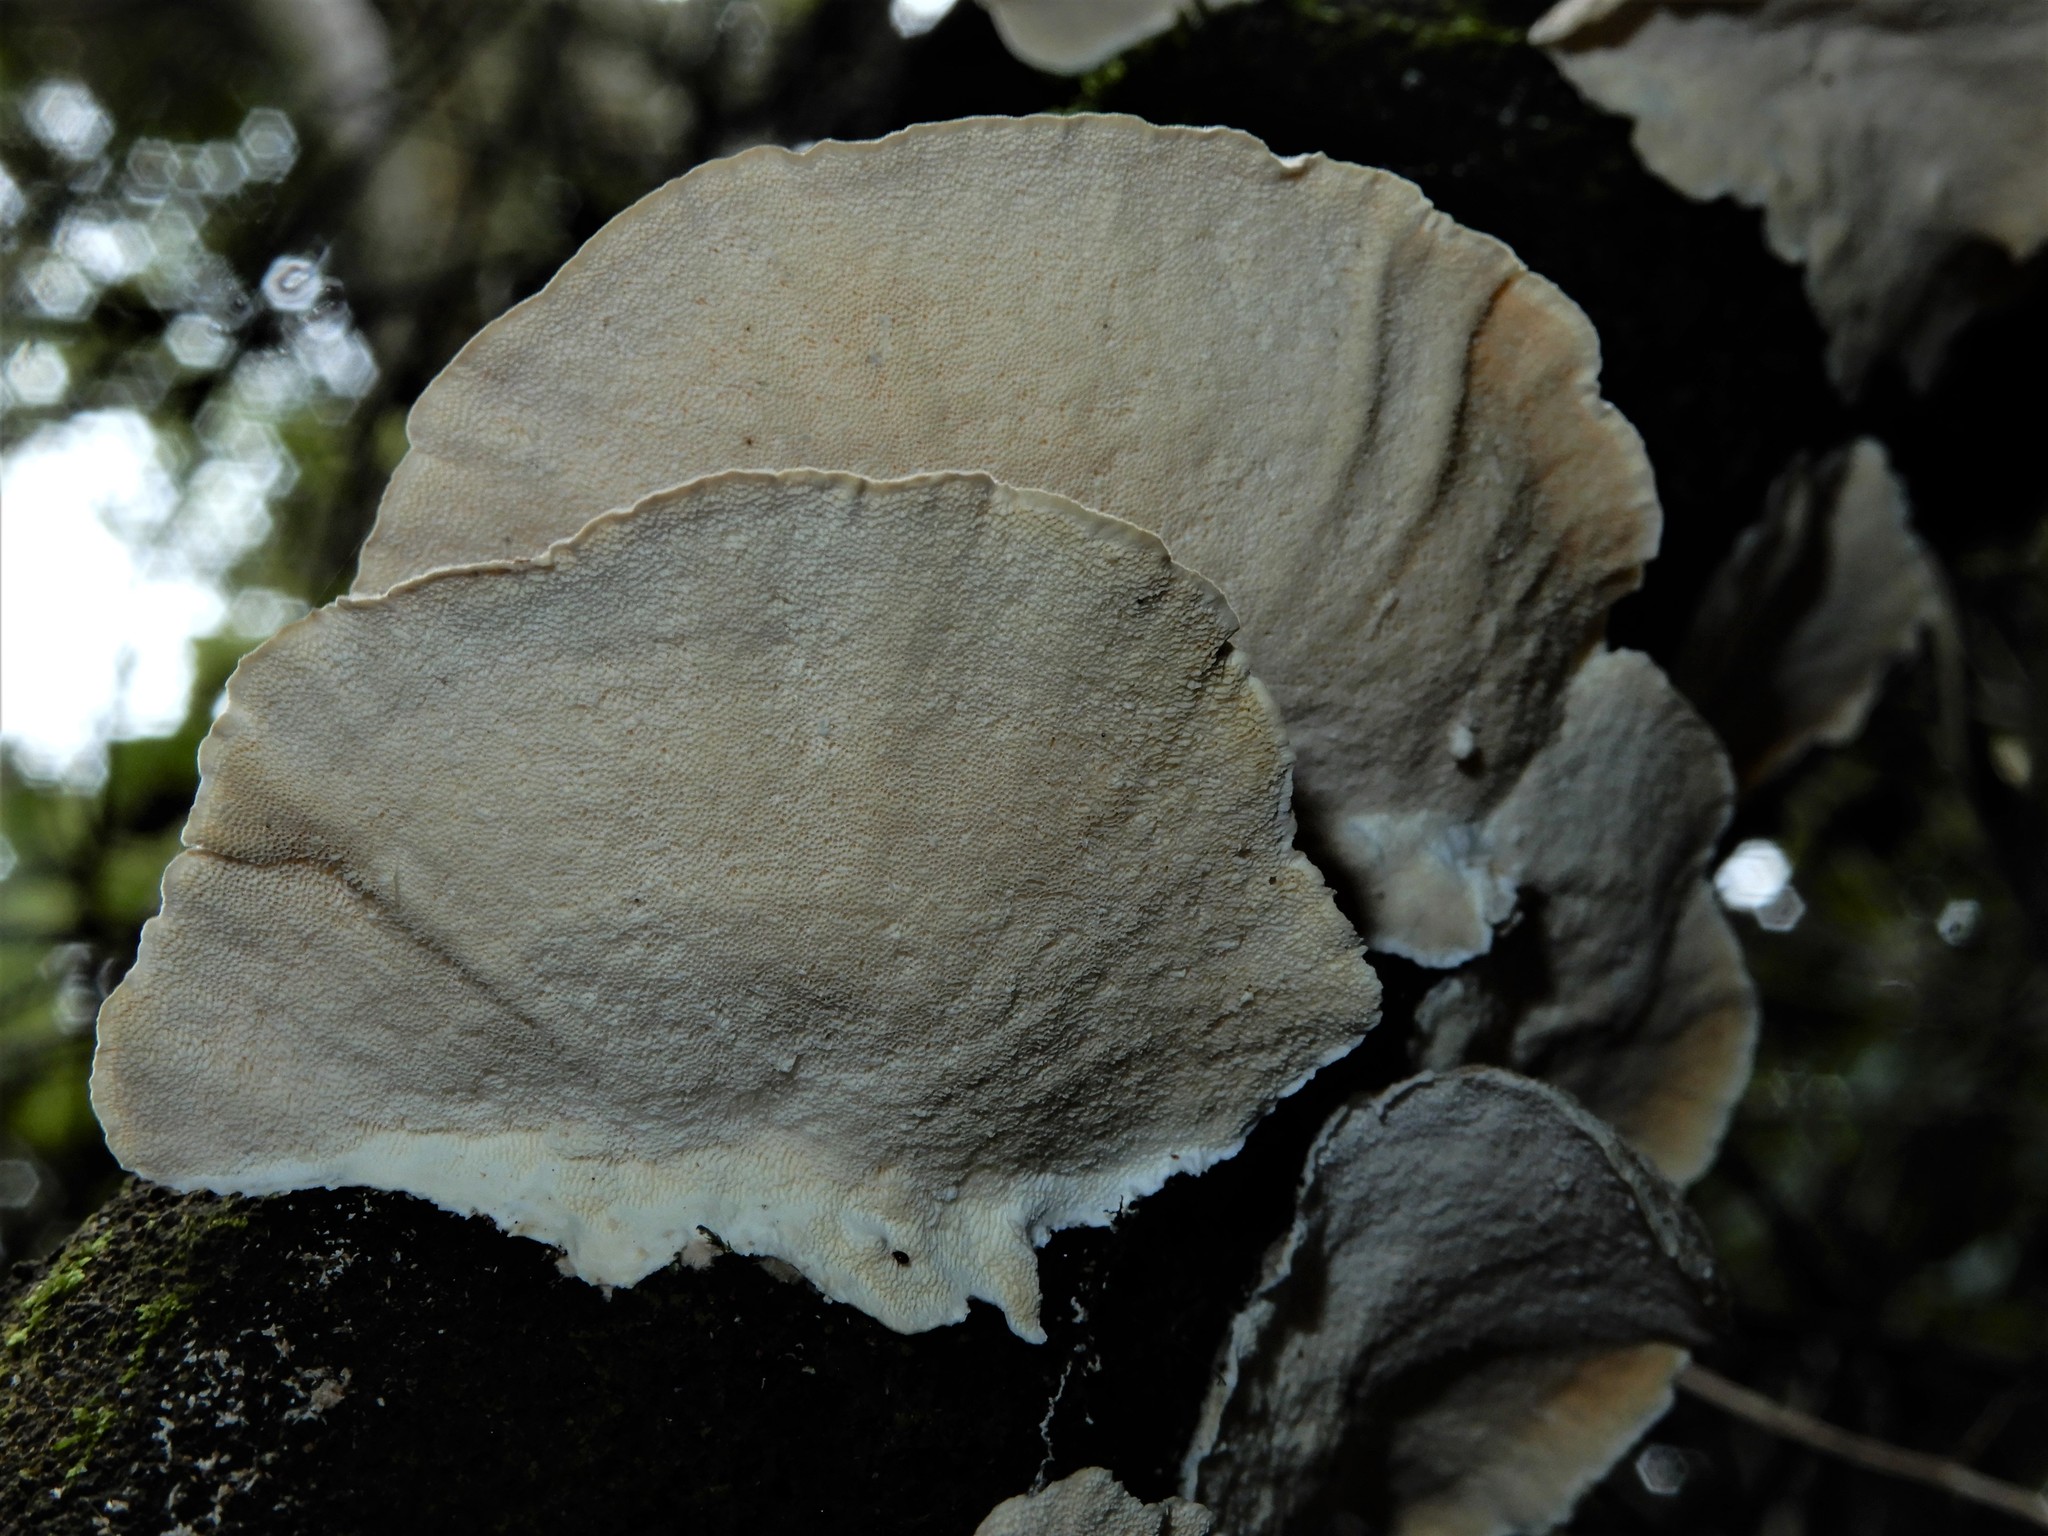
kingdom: Fungi
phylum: Basidiomycota
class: Agaricomycetes
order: Polyporales
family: Polyporaceae
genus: Trametes
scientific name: Trametes versicolor
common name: Turkeytail
